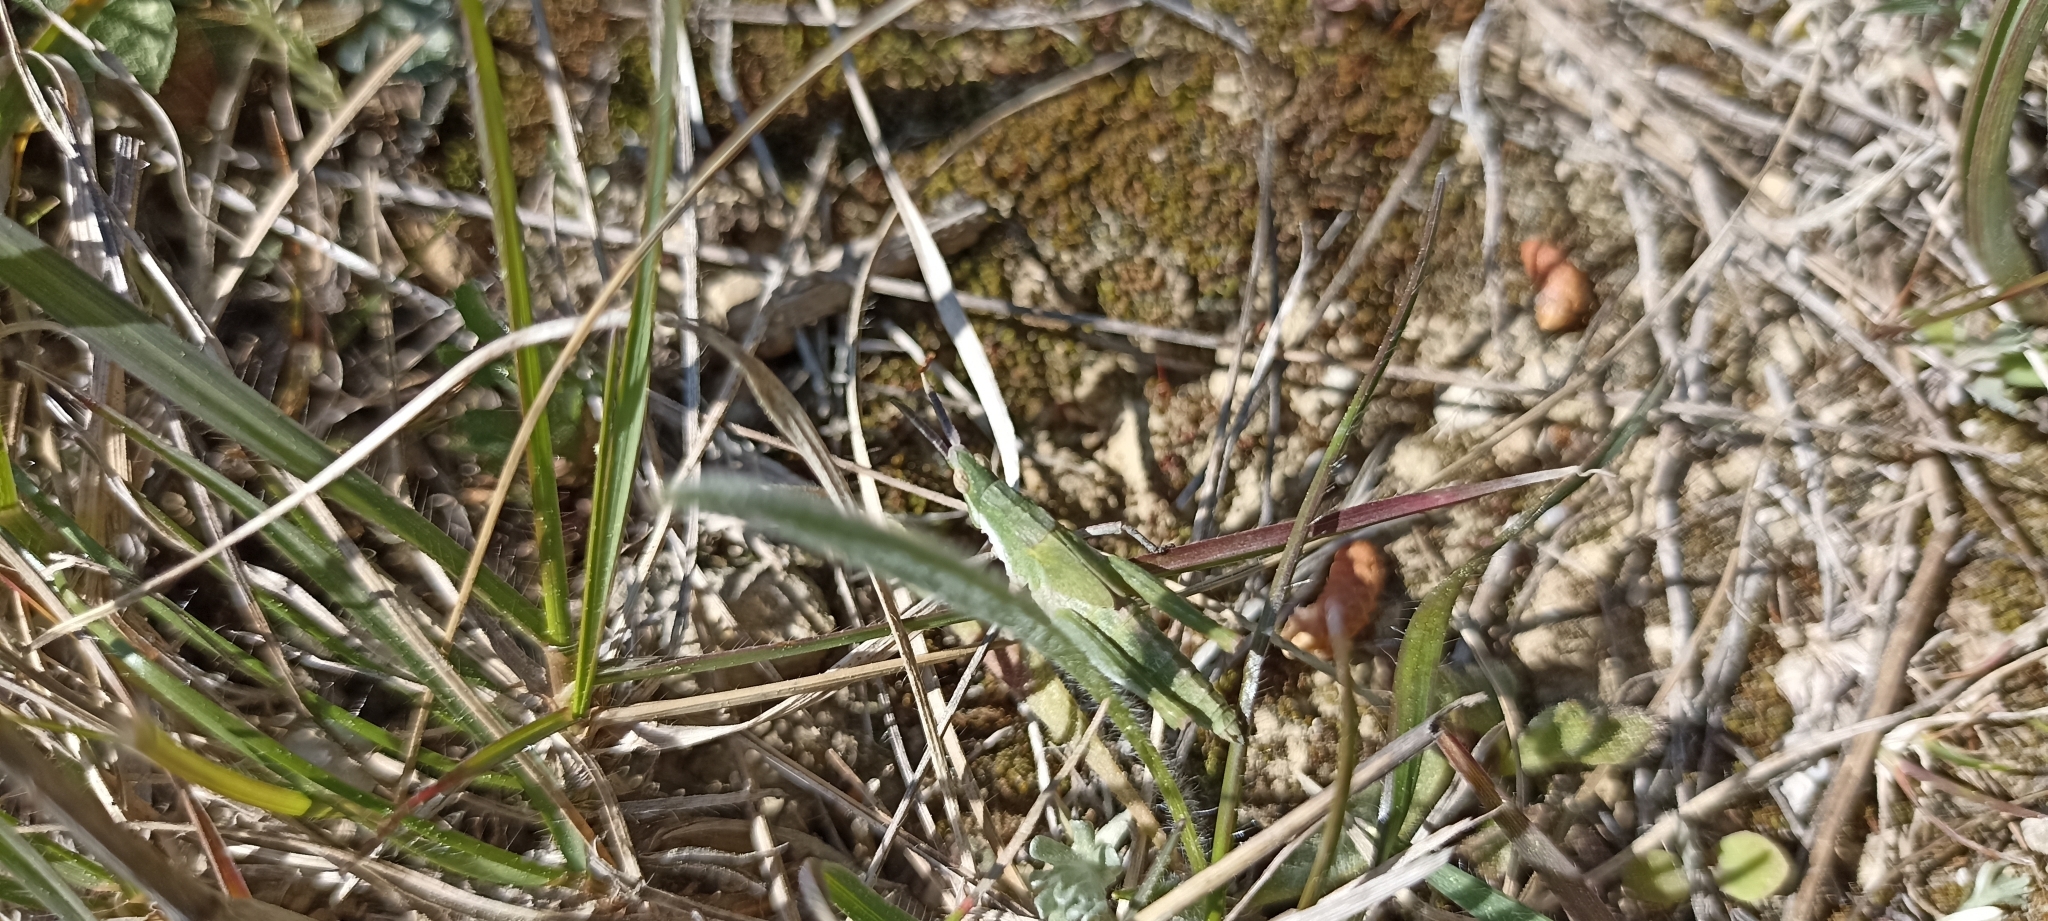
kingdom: Animalia
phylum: Arthropoda
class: Insecta
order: Orthoptera
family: Pyrgomorphidae
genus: Pyrgomorpha
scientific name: Pyrgomorpha conica
